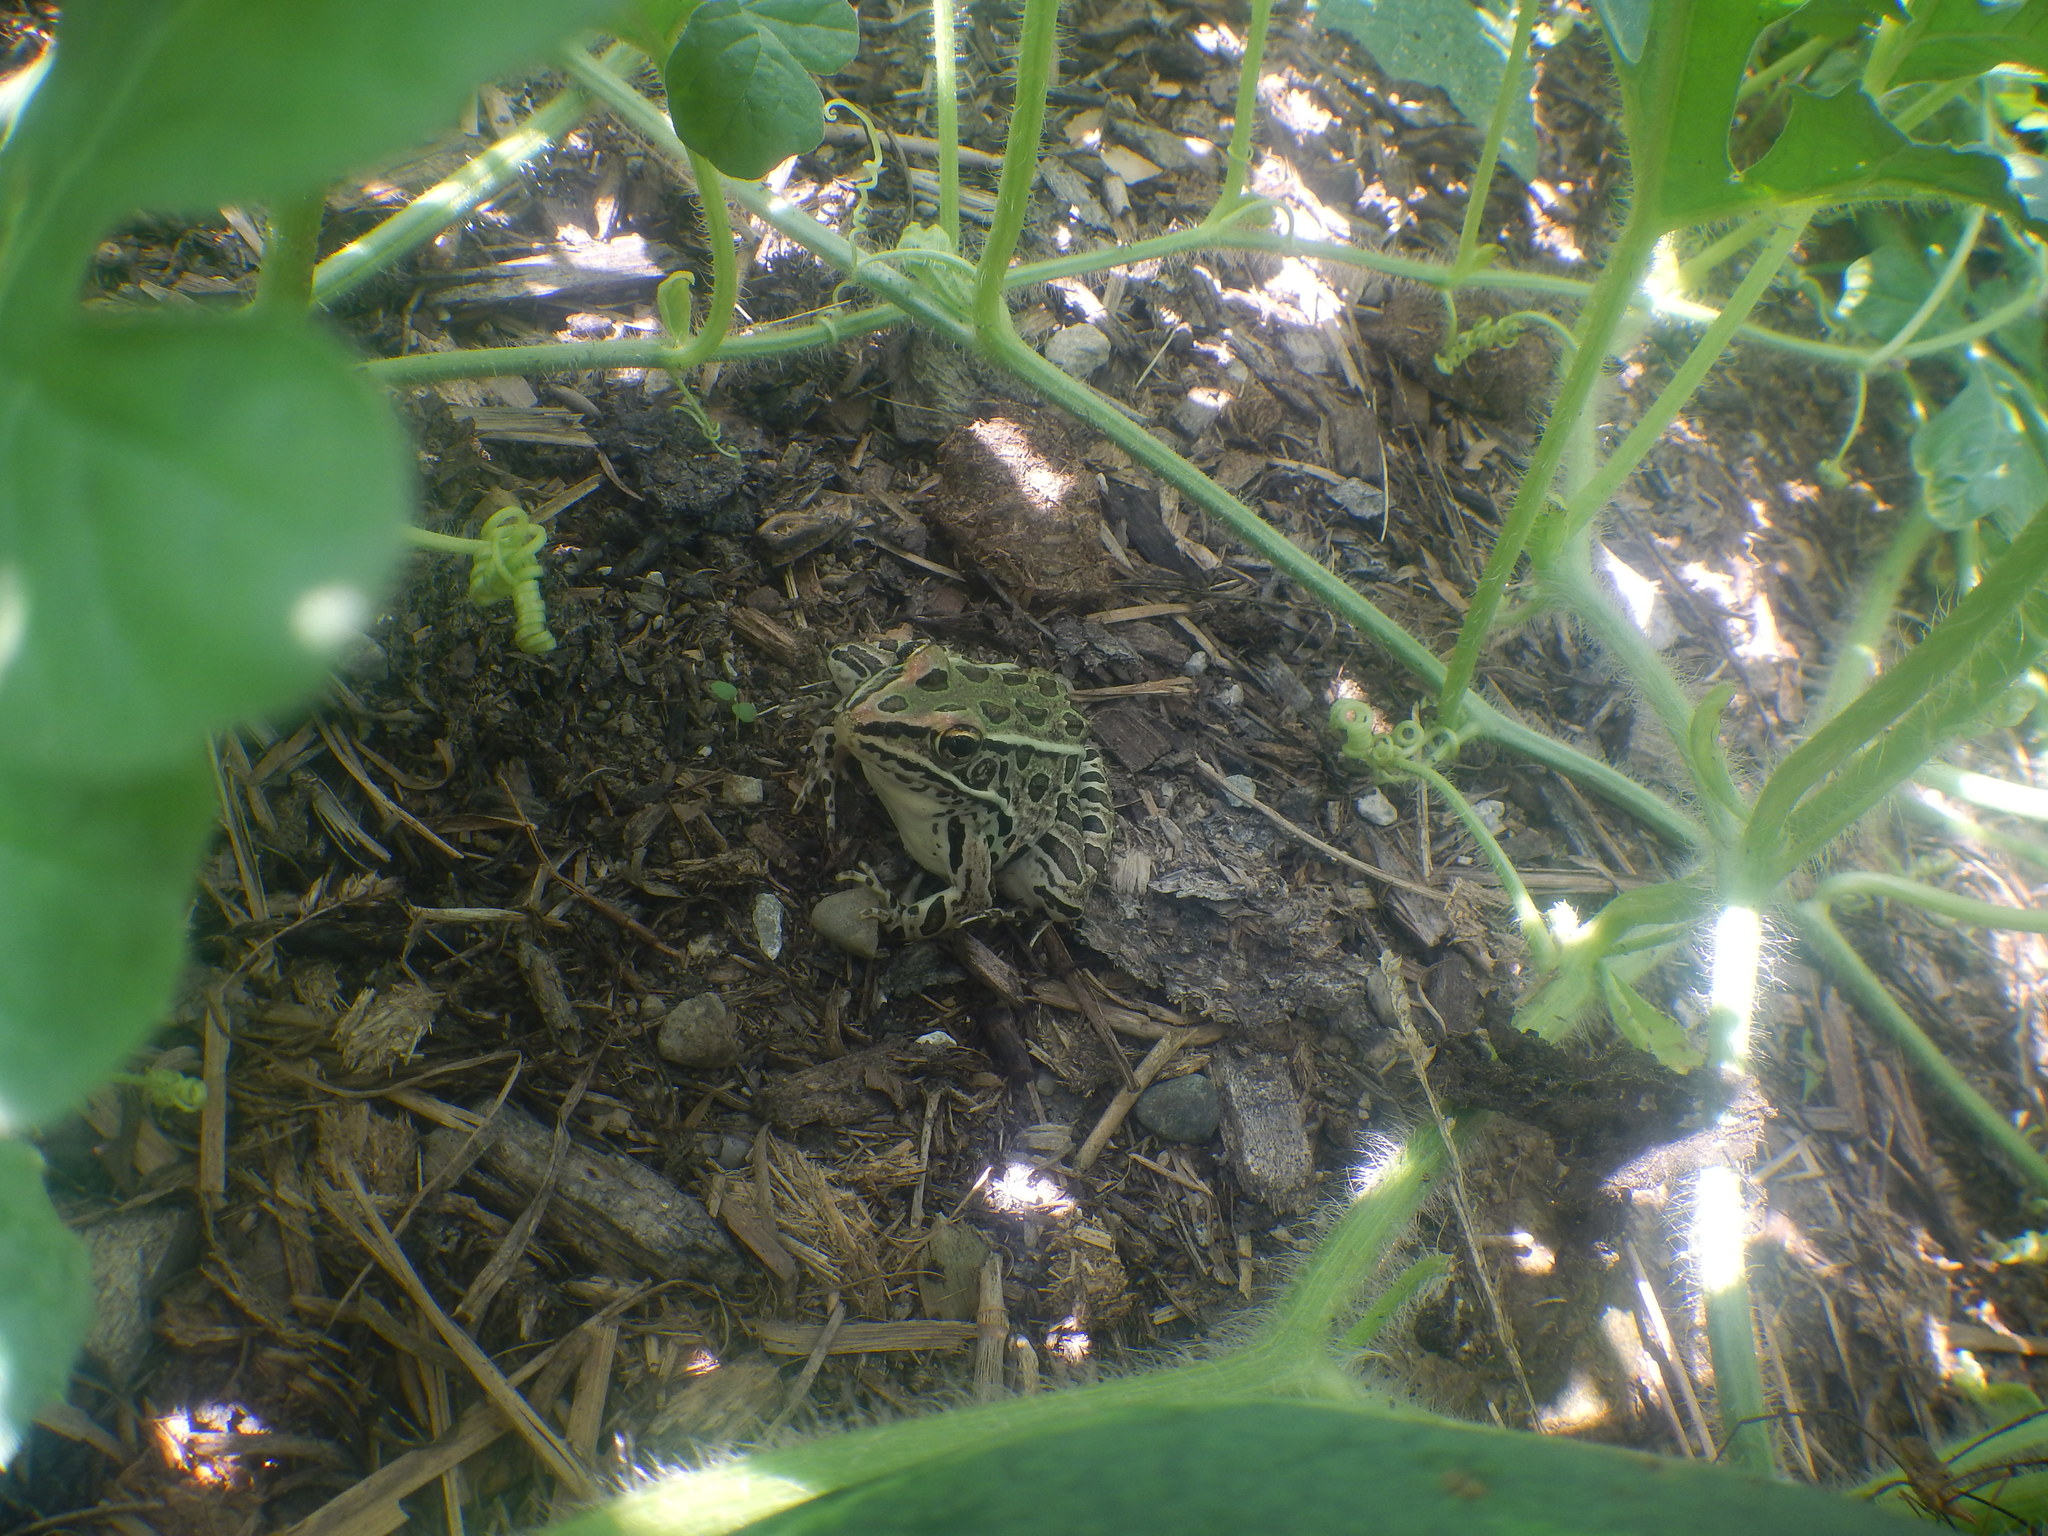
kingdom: Animalia
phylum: Chordata
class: Amphibia
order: Anura
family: Ranidae
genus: Lithobates
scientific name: Lithobates pipiens
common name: Northern leopard frog
